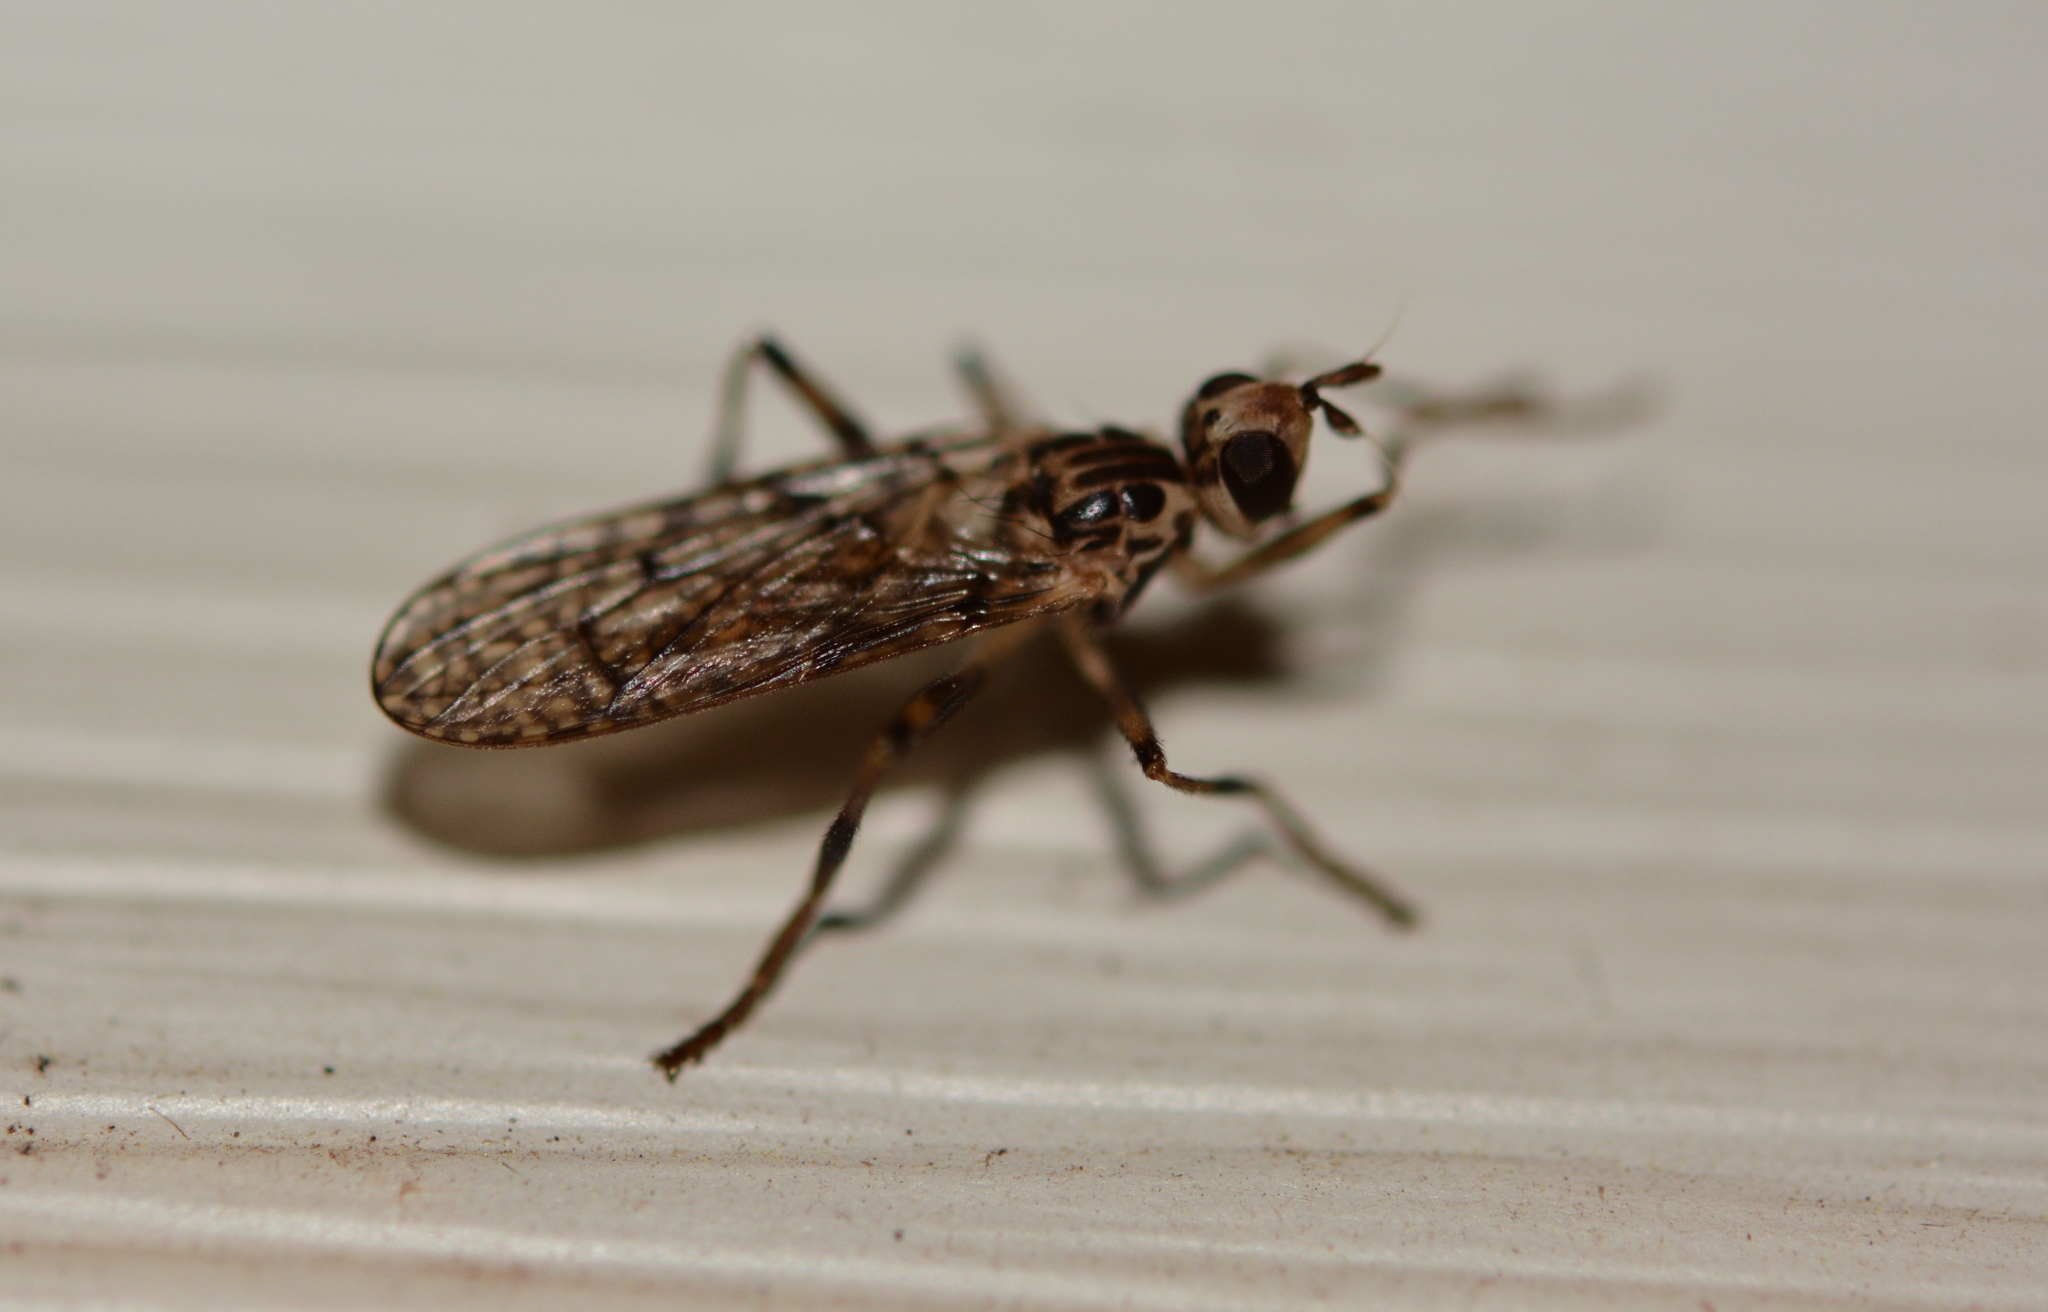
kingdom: Animalia
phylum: Arthropoda
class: Insecta
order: Diptera
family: Pyrgotidae
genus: Boreothrinax
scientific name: Boreothrinax
